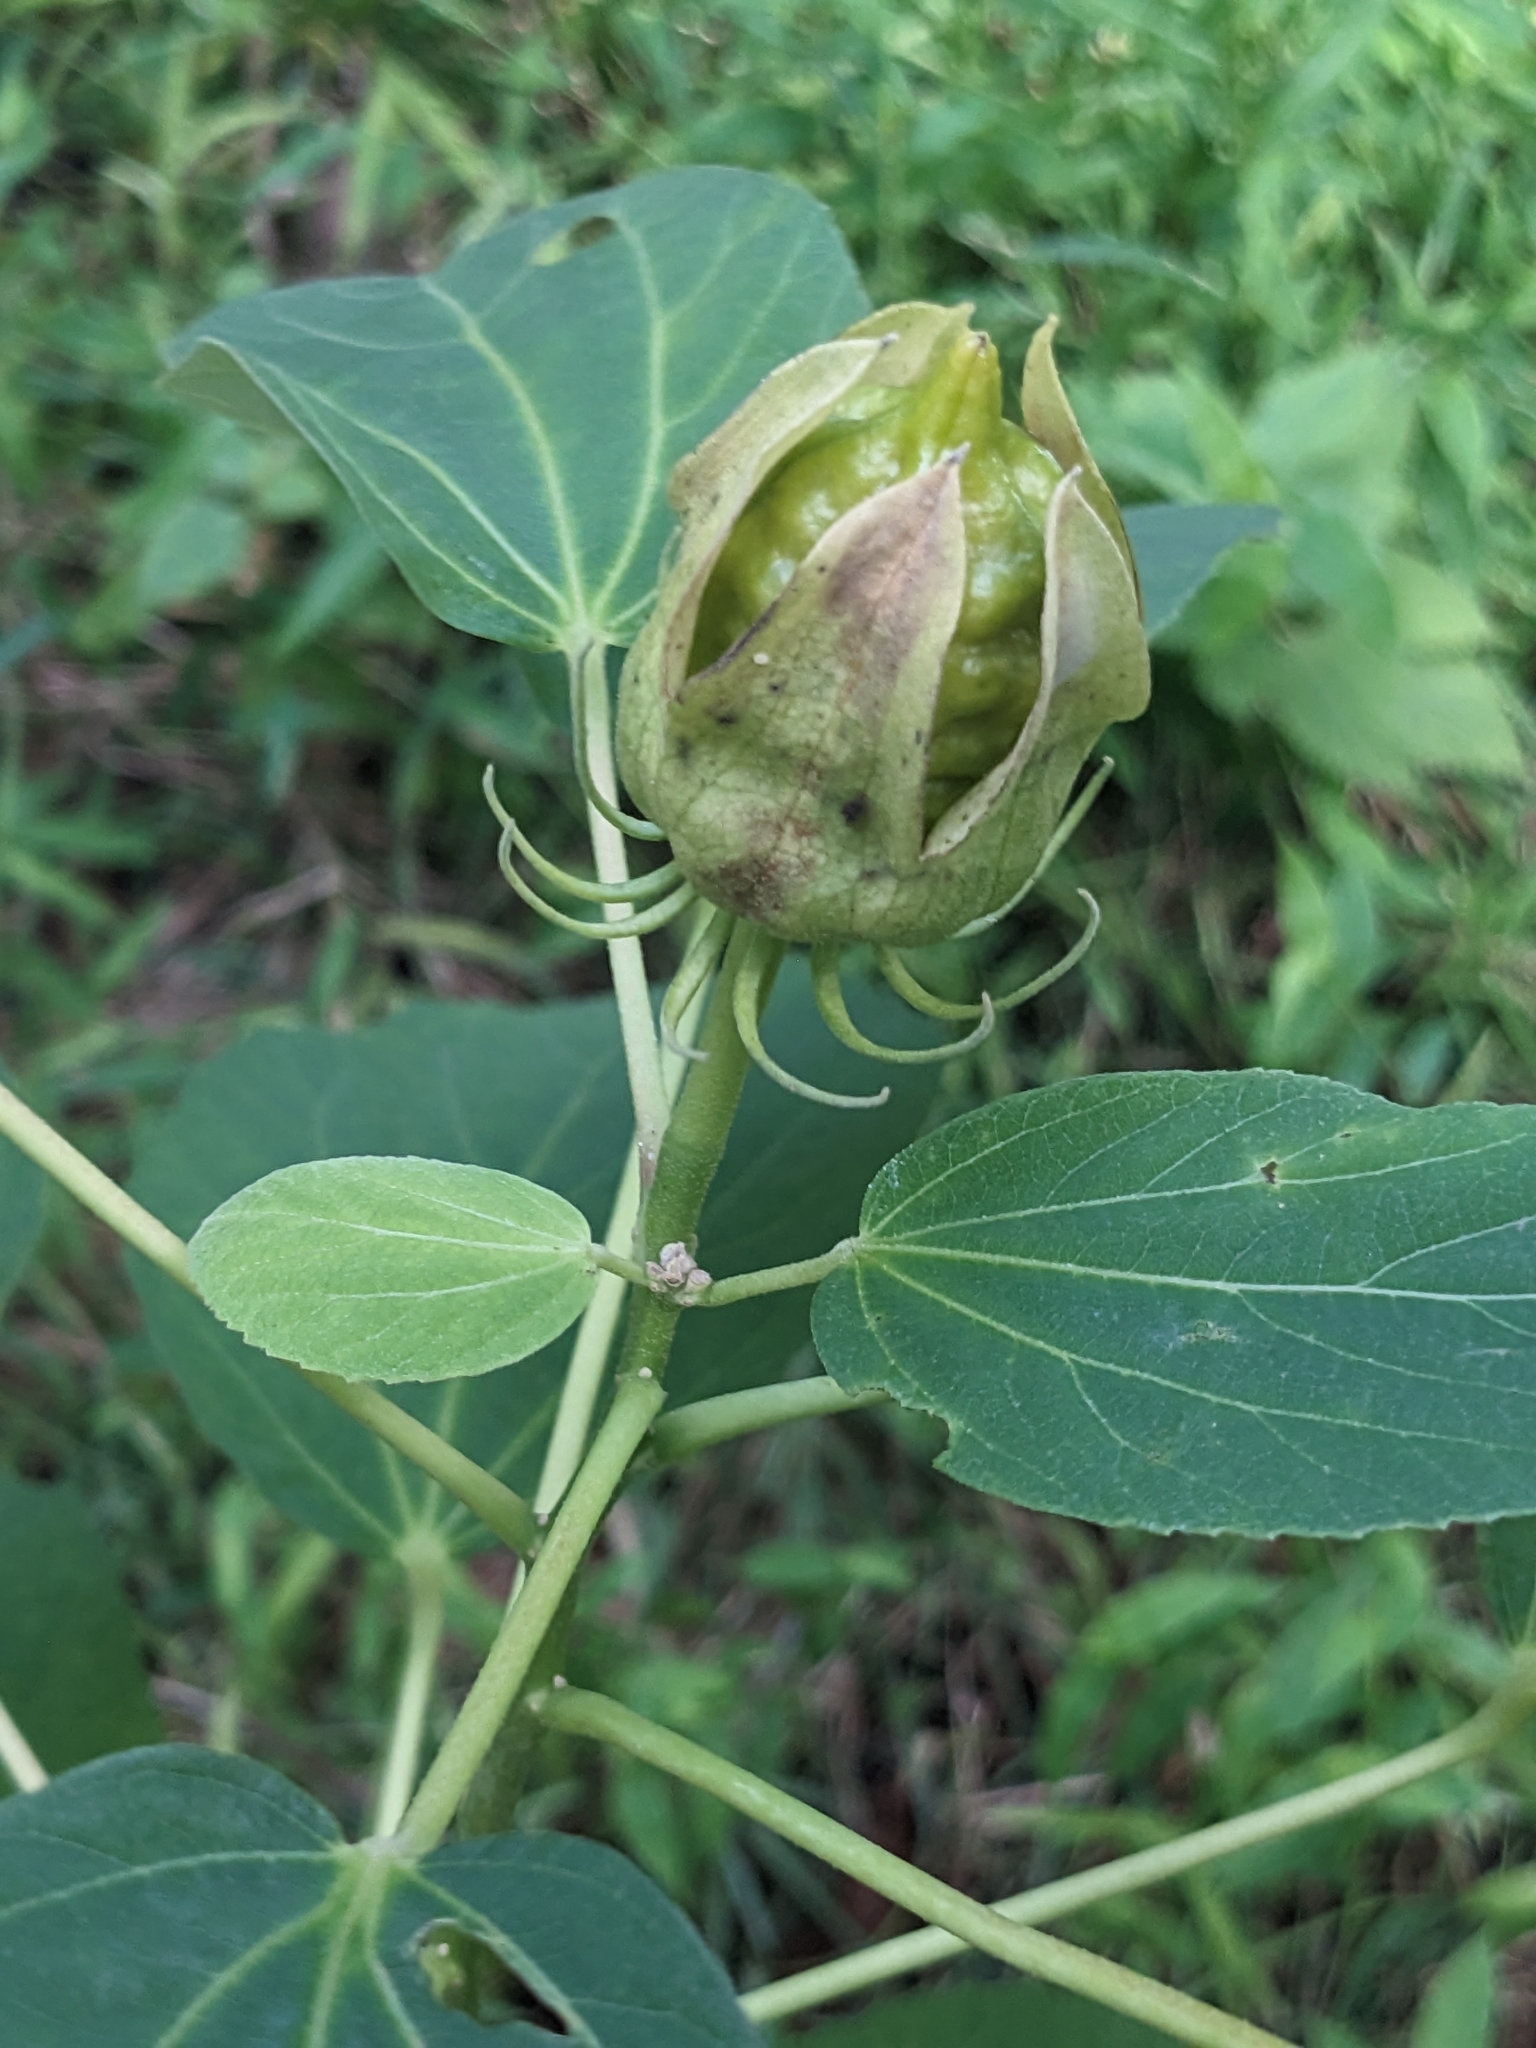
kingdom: Plantae
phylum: Tracheophyta
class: Magnoliopsida
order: Malvales
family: Malvaceae
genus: Hibiscus
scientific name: Hibiscus moscheutos
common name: Common rose-mallow
